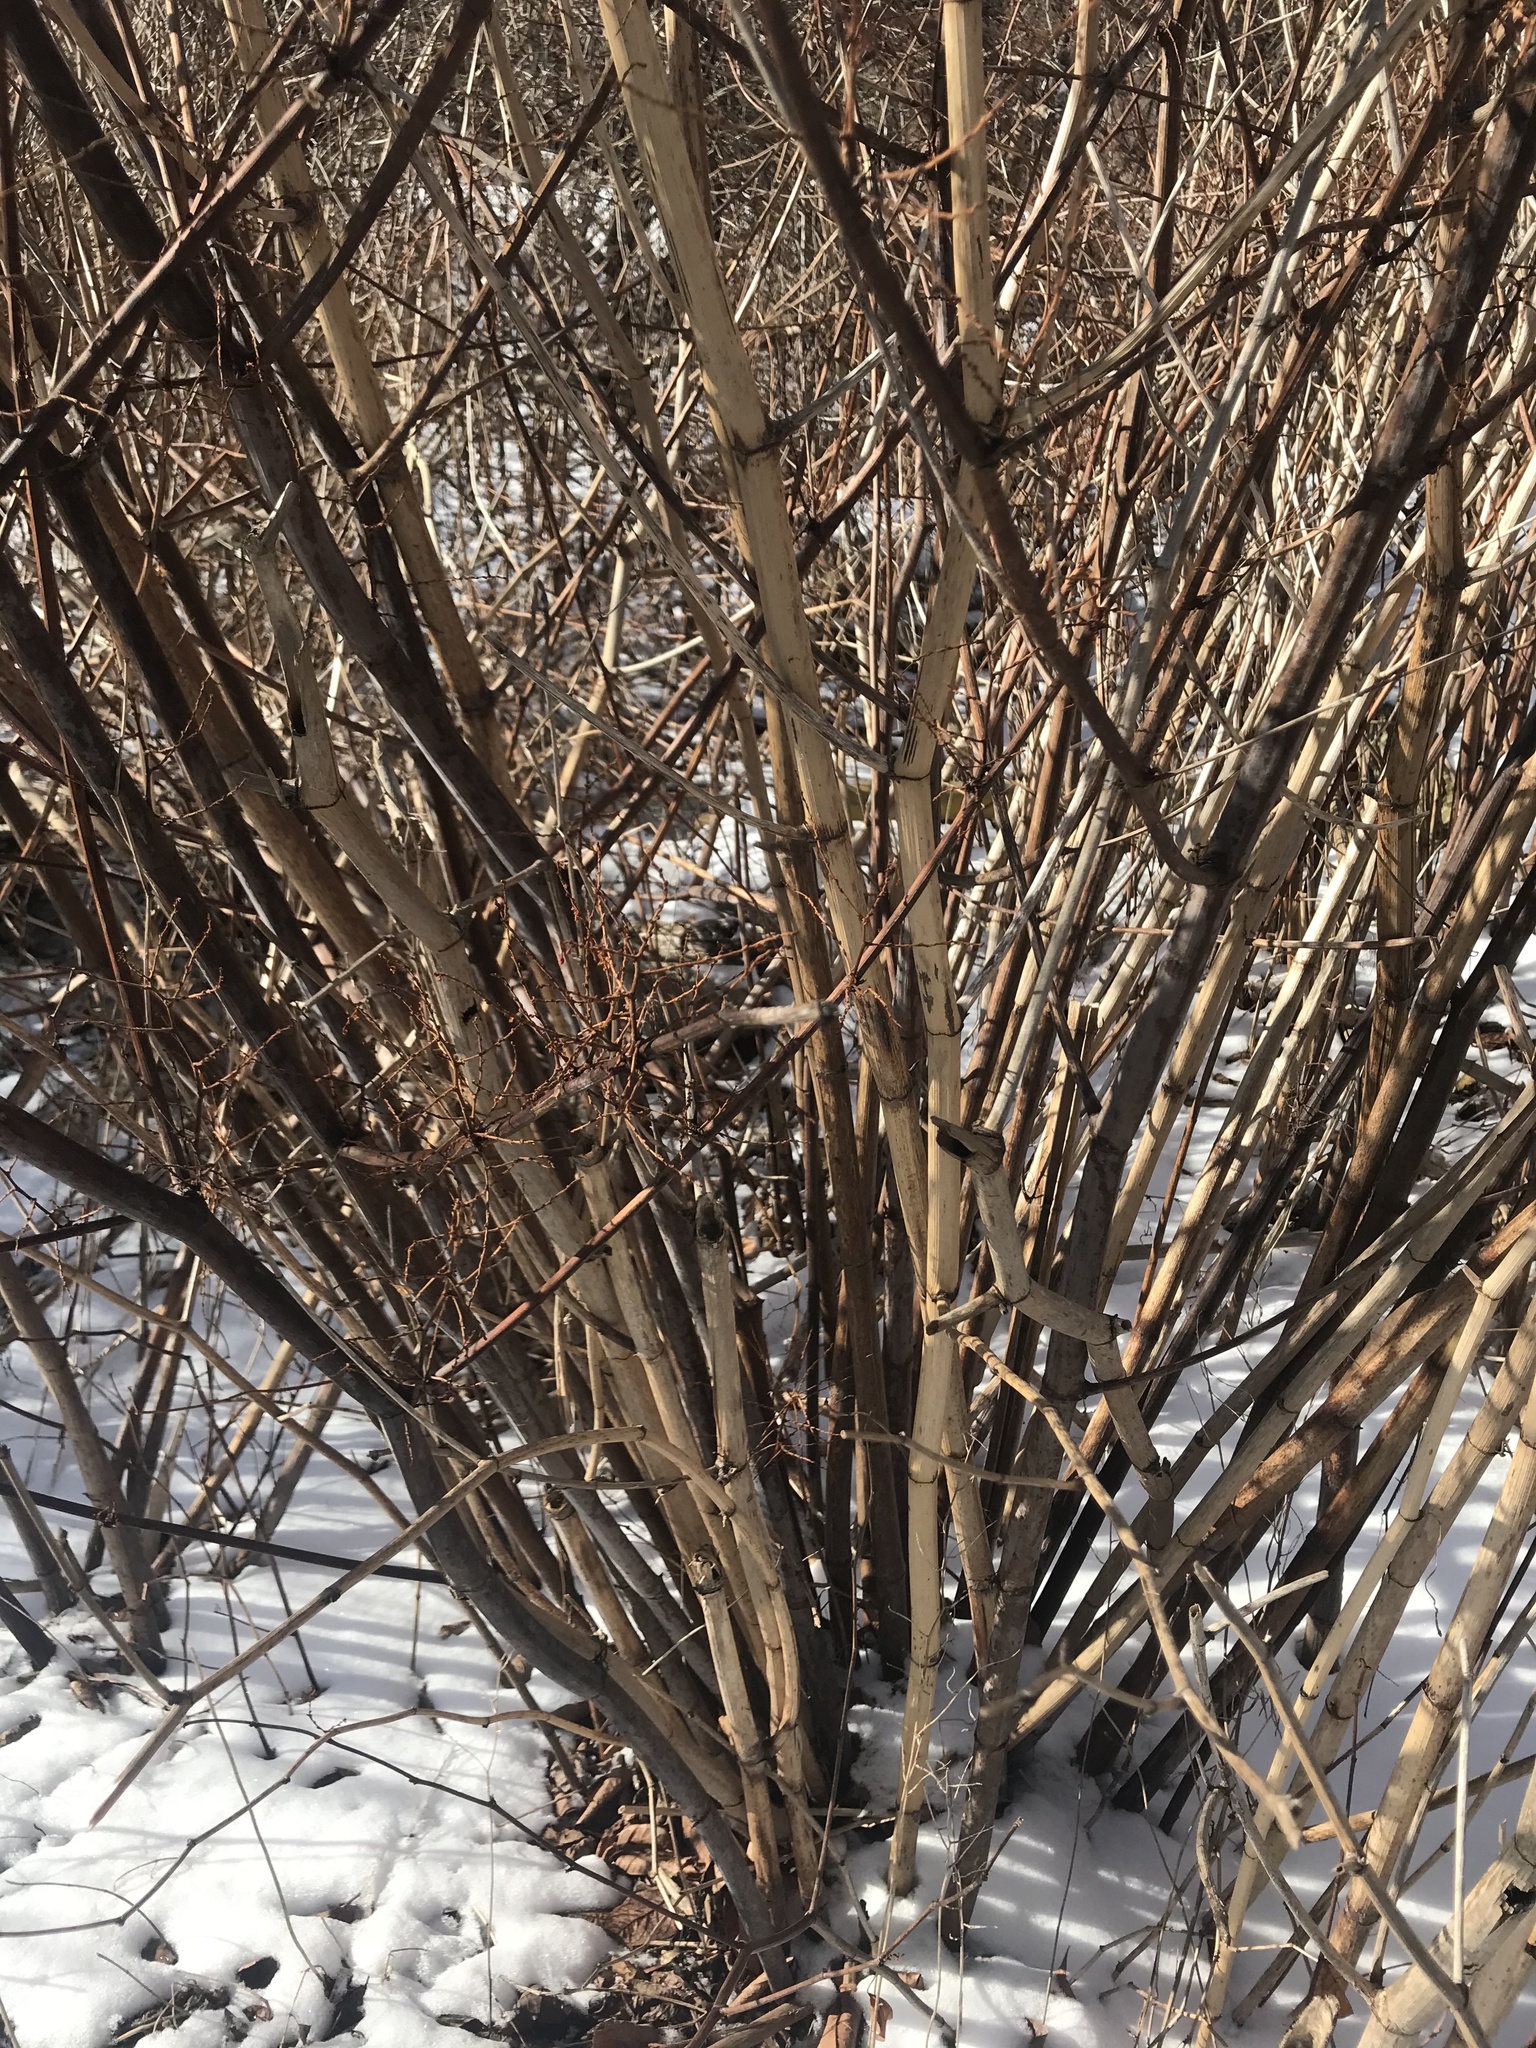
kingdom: Plantae
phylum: Tracheophyta
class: Magnoliopsida
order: Caryophyllales
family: Polygonaceae
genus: Reynoutria
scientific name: Reynoutria japonica
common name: Japanese knotweed
